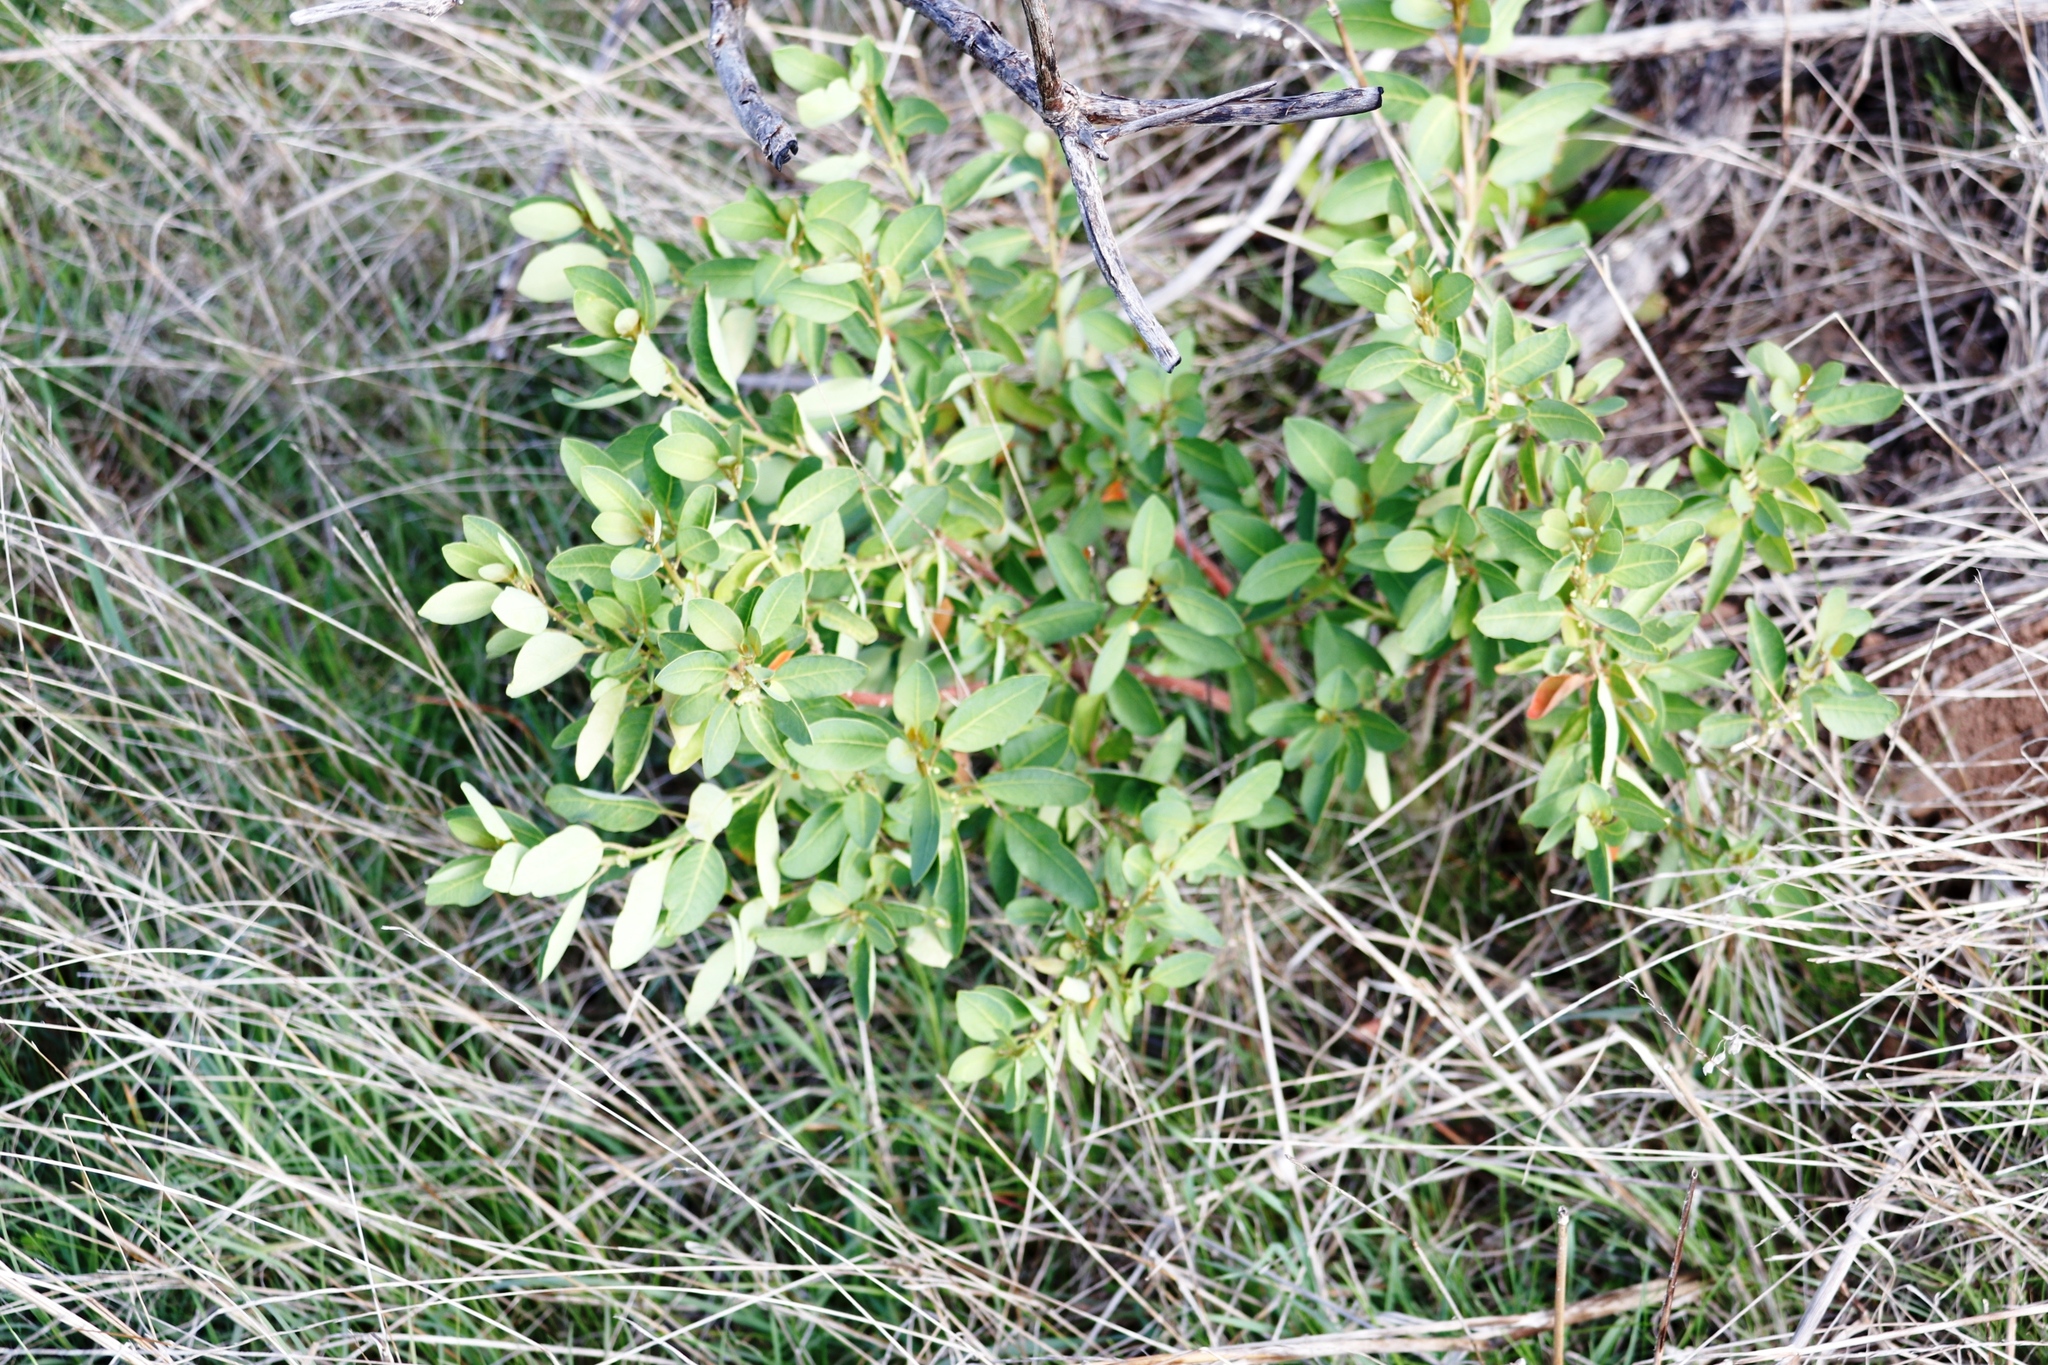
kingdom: Plantae
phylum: Tracheophyta
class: Magnoliopsida
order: Malpighiales
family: Peraceae
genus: Clutia
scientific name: Clutia pulchella
